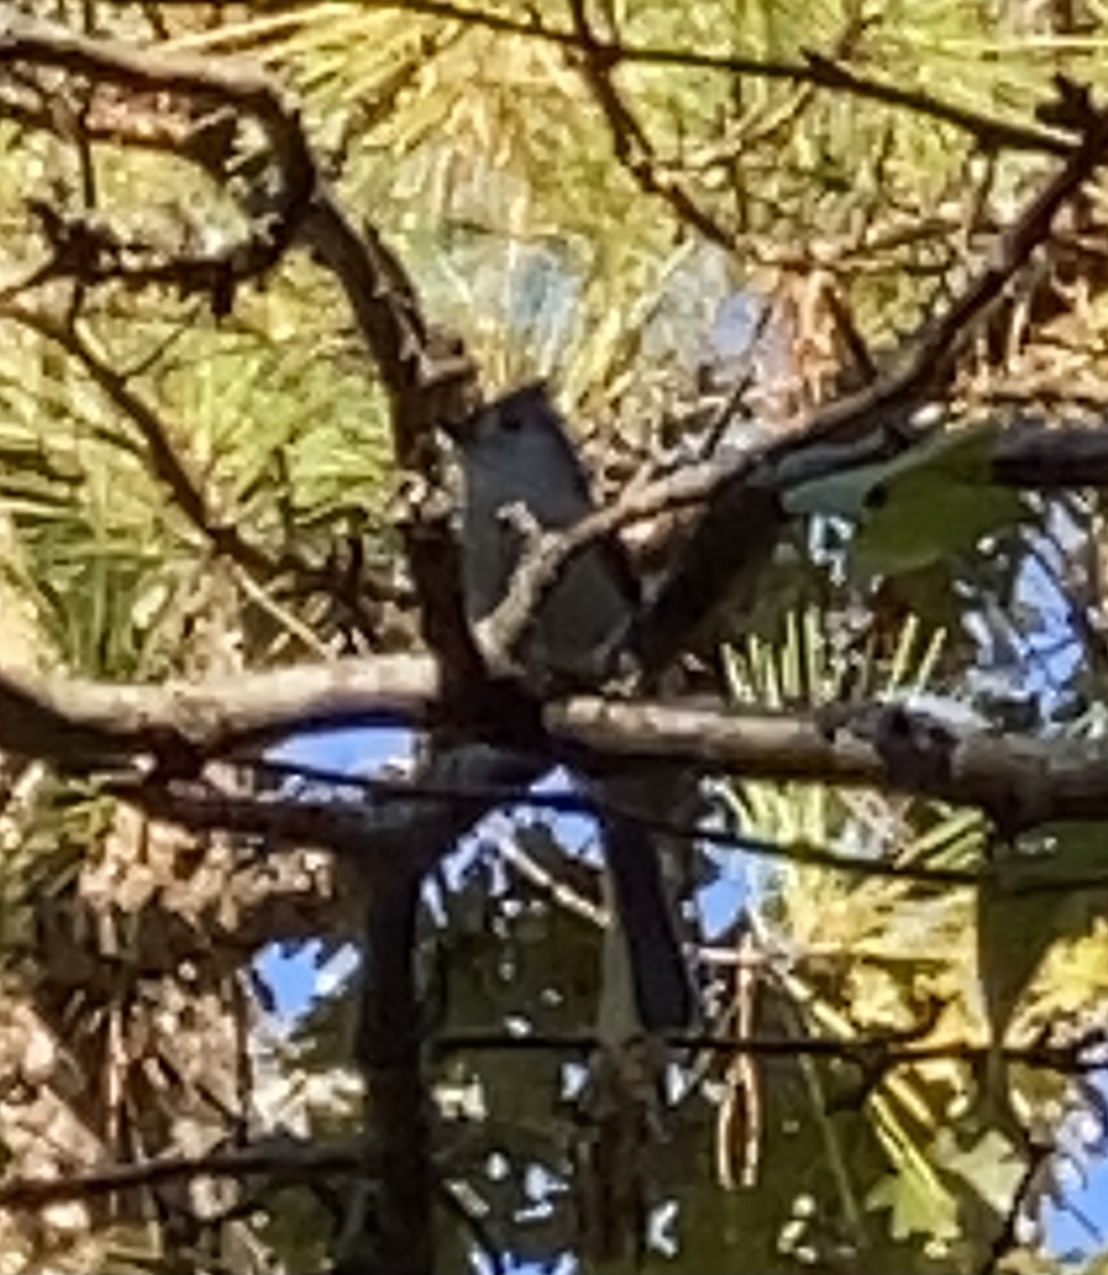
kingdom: Animalia
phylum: Chordata
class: Aves
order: Passeriformes
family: Paridae
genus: Baeolophus
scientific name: Baeolophus bicolor
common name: Tufted titmouse
